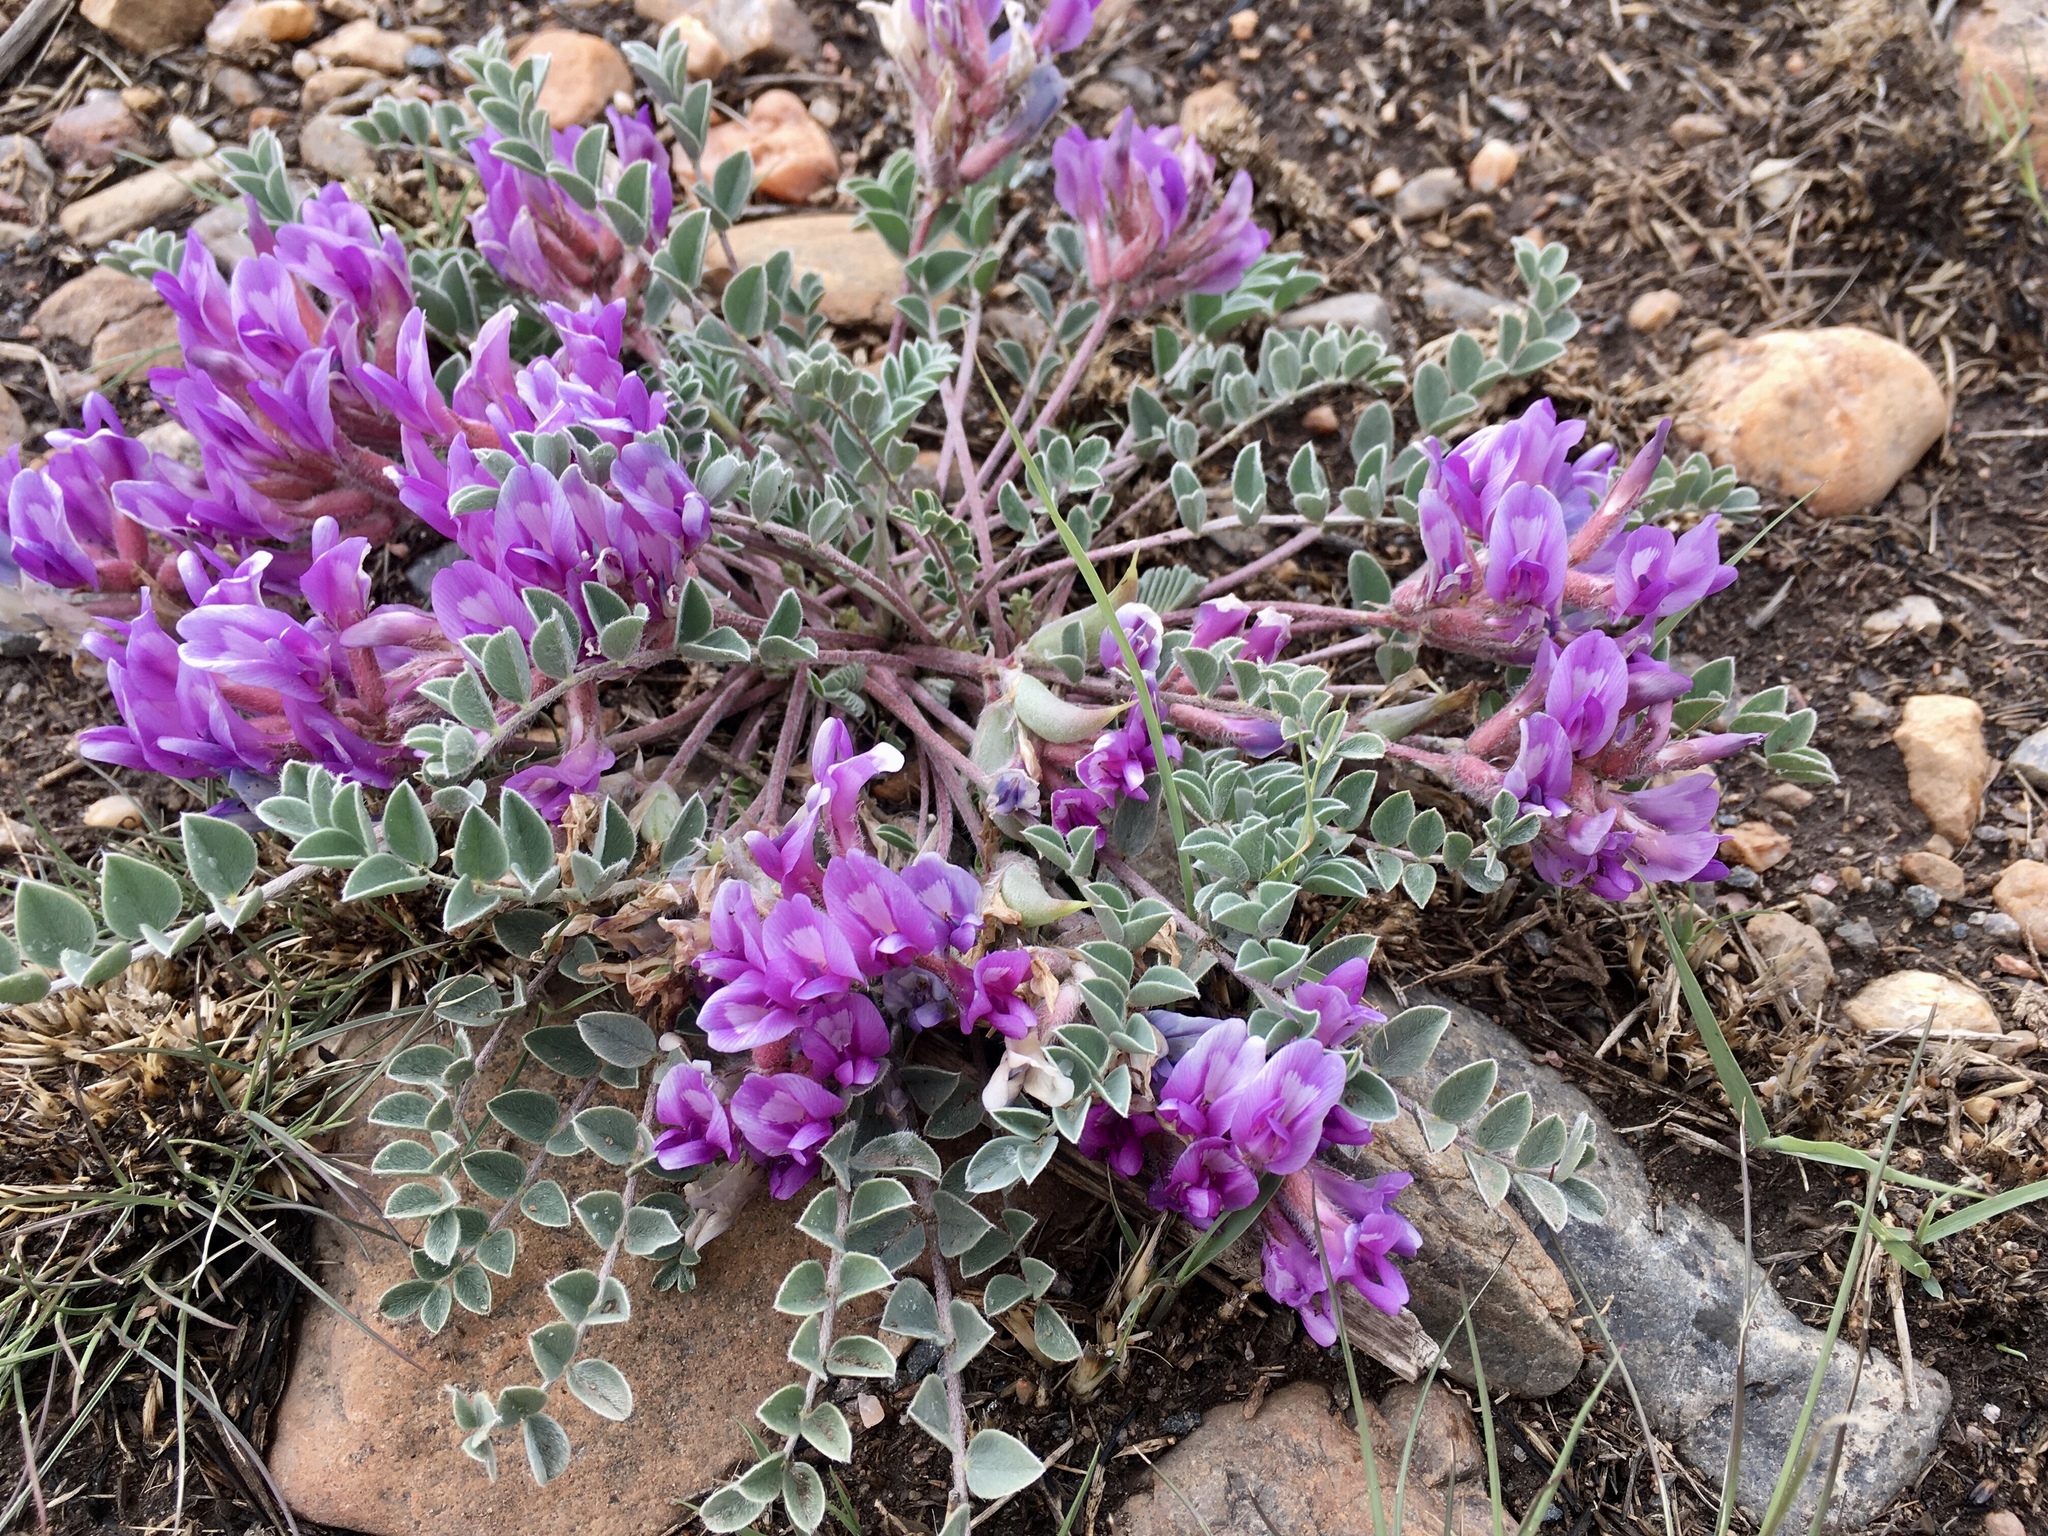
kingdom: Plantae
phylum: Tracheophyta
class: Magnoliopsida
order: Fabales
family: Fabaceae
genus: Astragalus
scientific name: Astragalus shortianus
